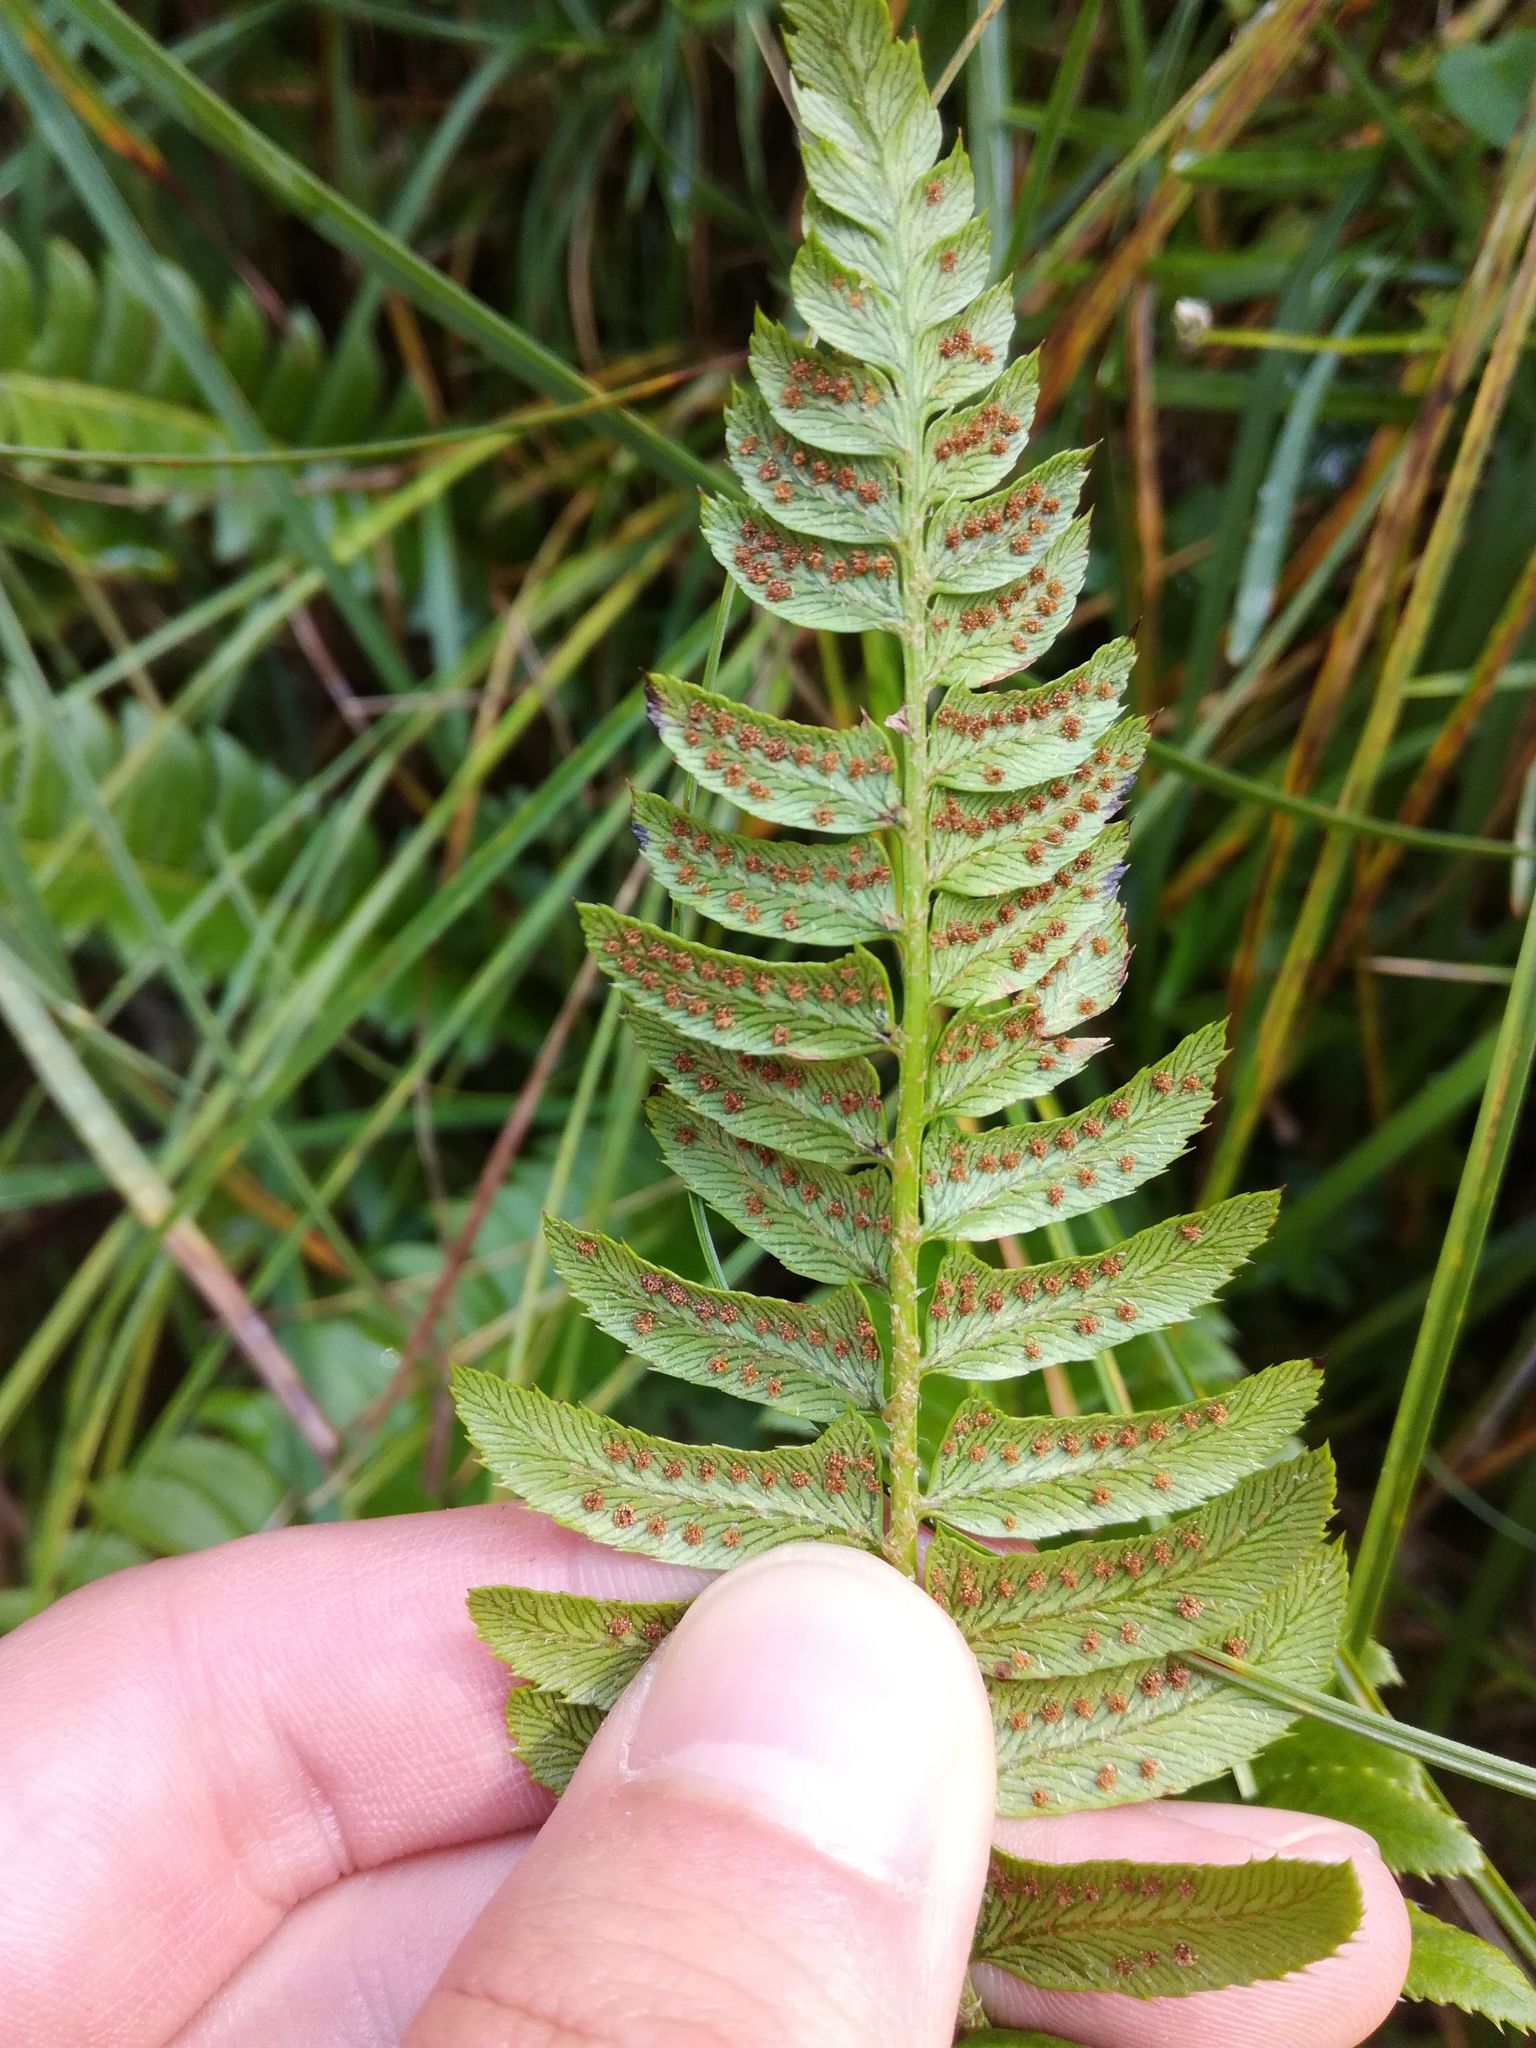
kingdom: Plantae
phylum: Tracheophyta
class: Polypodiopsida
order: Polypodiales
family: Dryopteridaceae
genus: Polystichum
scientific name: Polystichum lonchitis
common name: Holly fern
